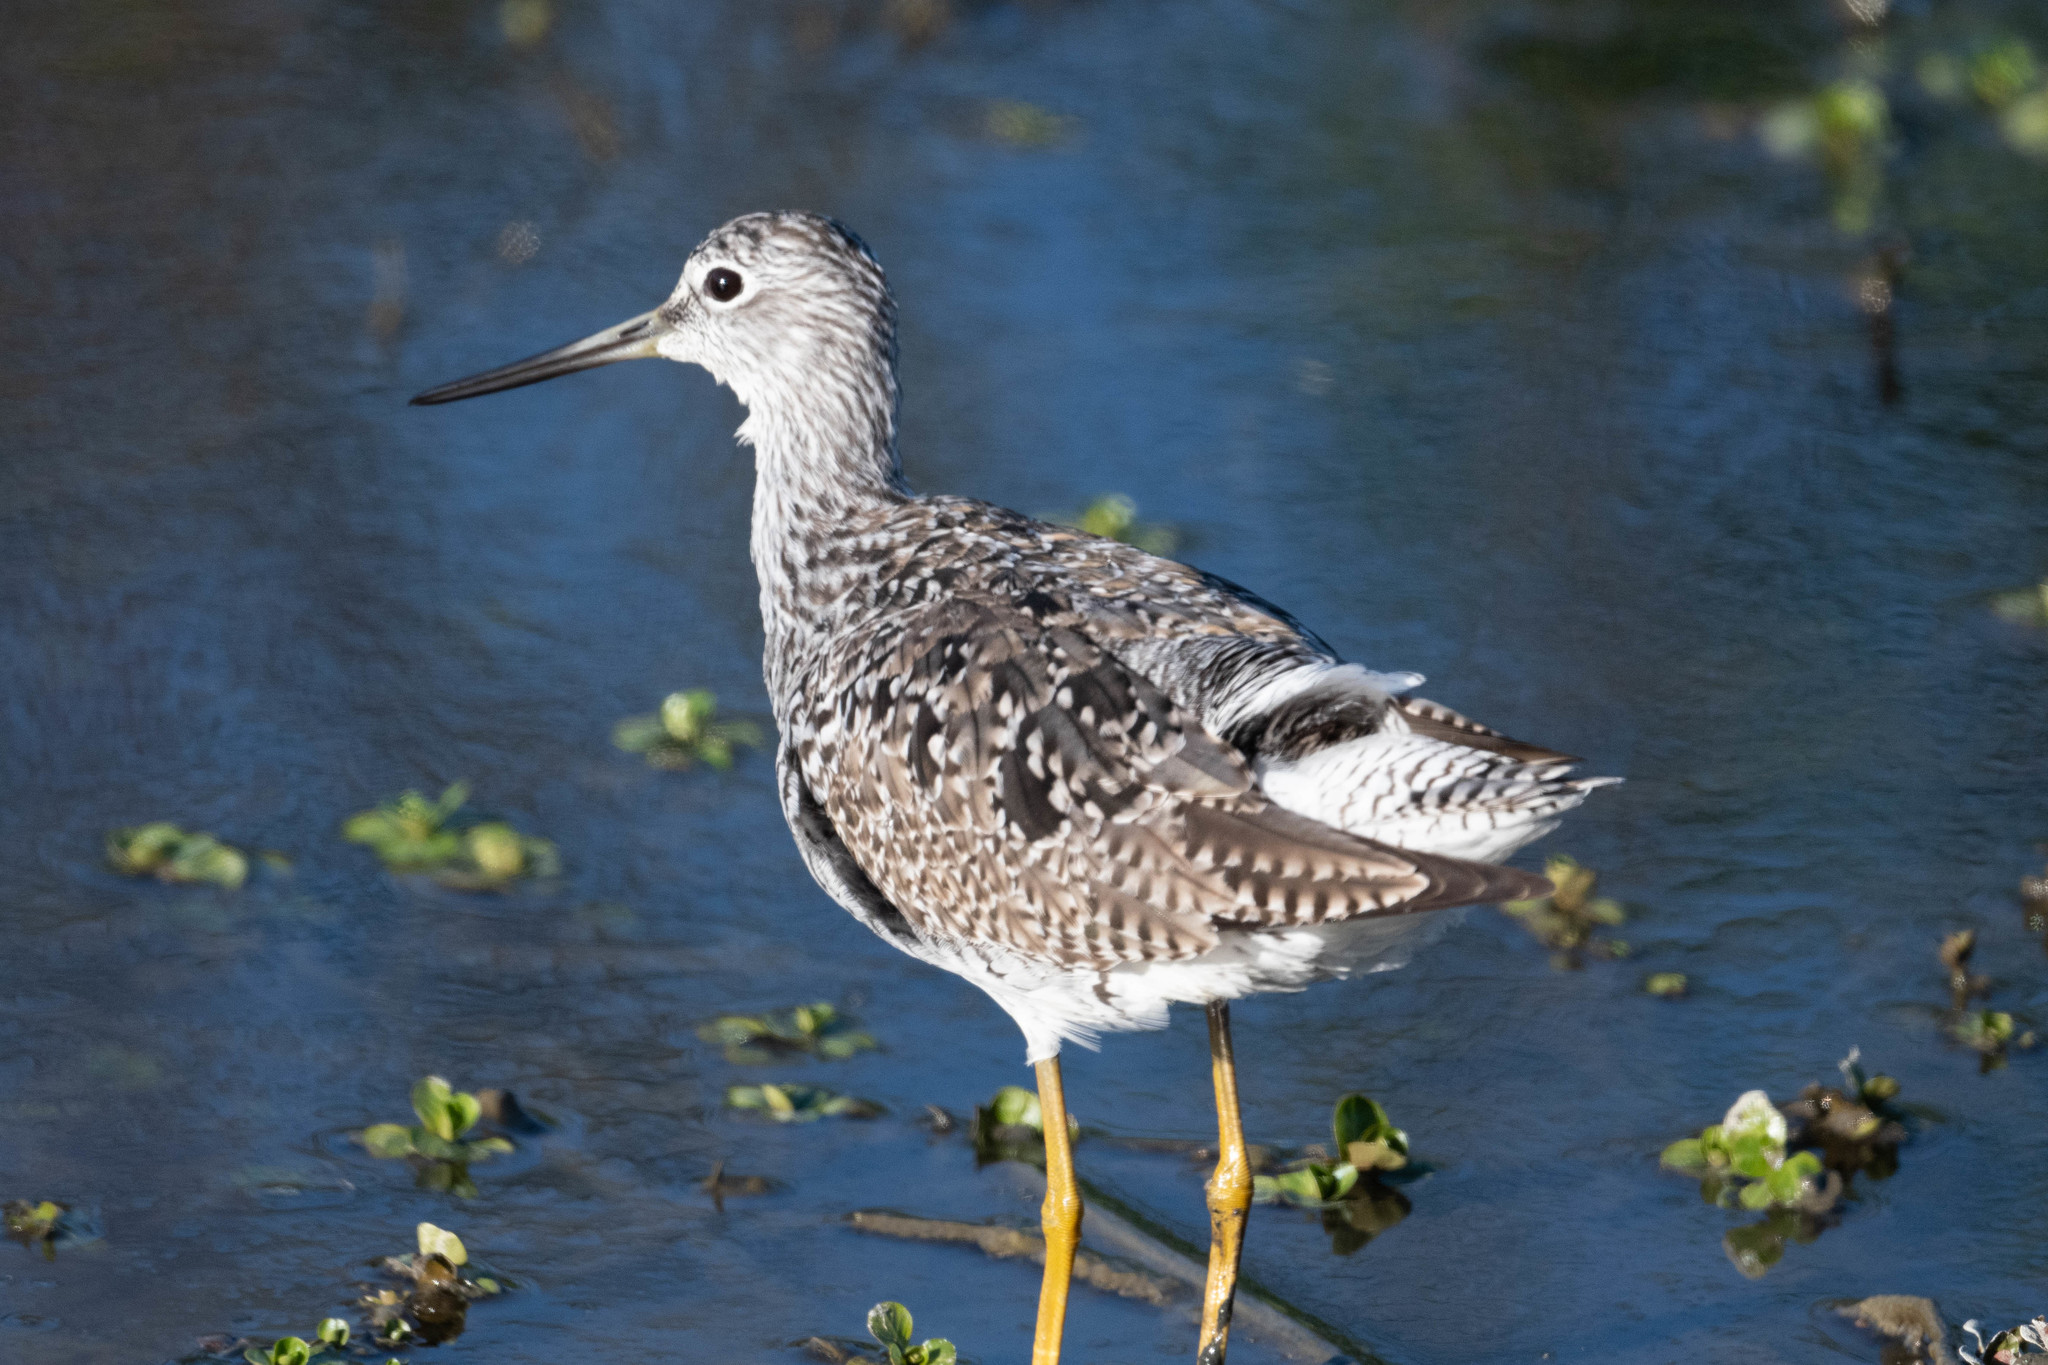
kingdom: Animalia
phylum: Chordata
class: Aves
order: Charadriiformes
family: Scolopacidae
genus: Tringa
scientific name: Tringa melanoleuca
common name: Greater yellowlegs
